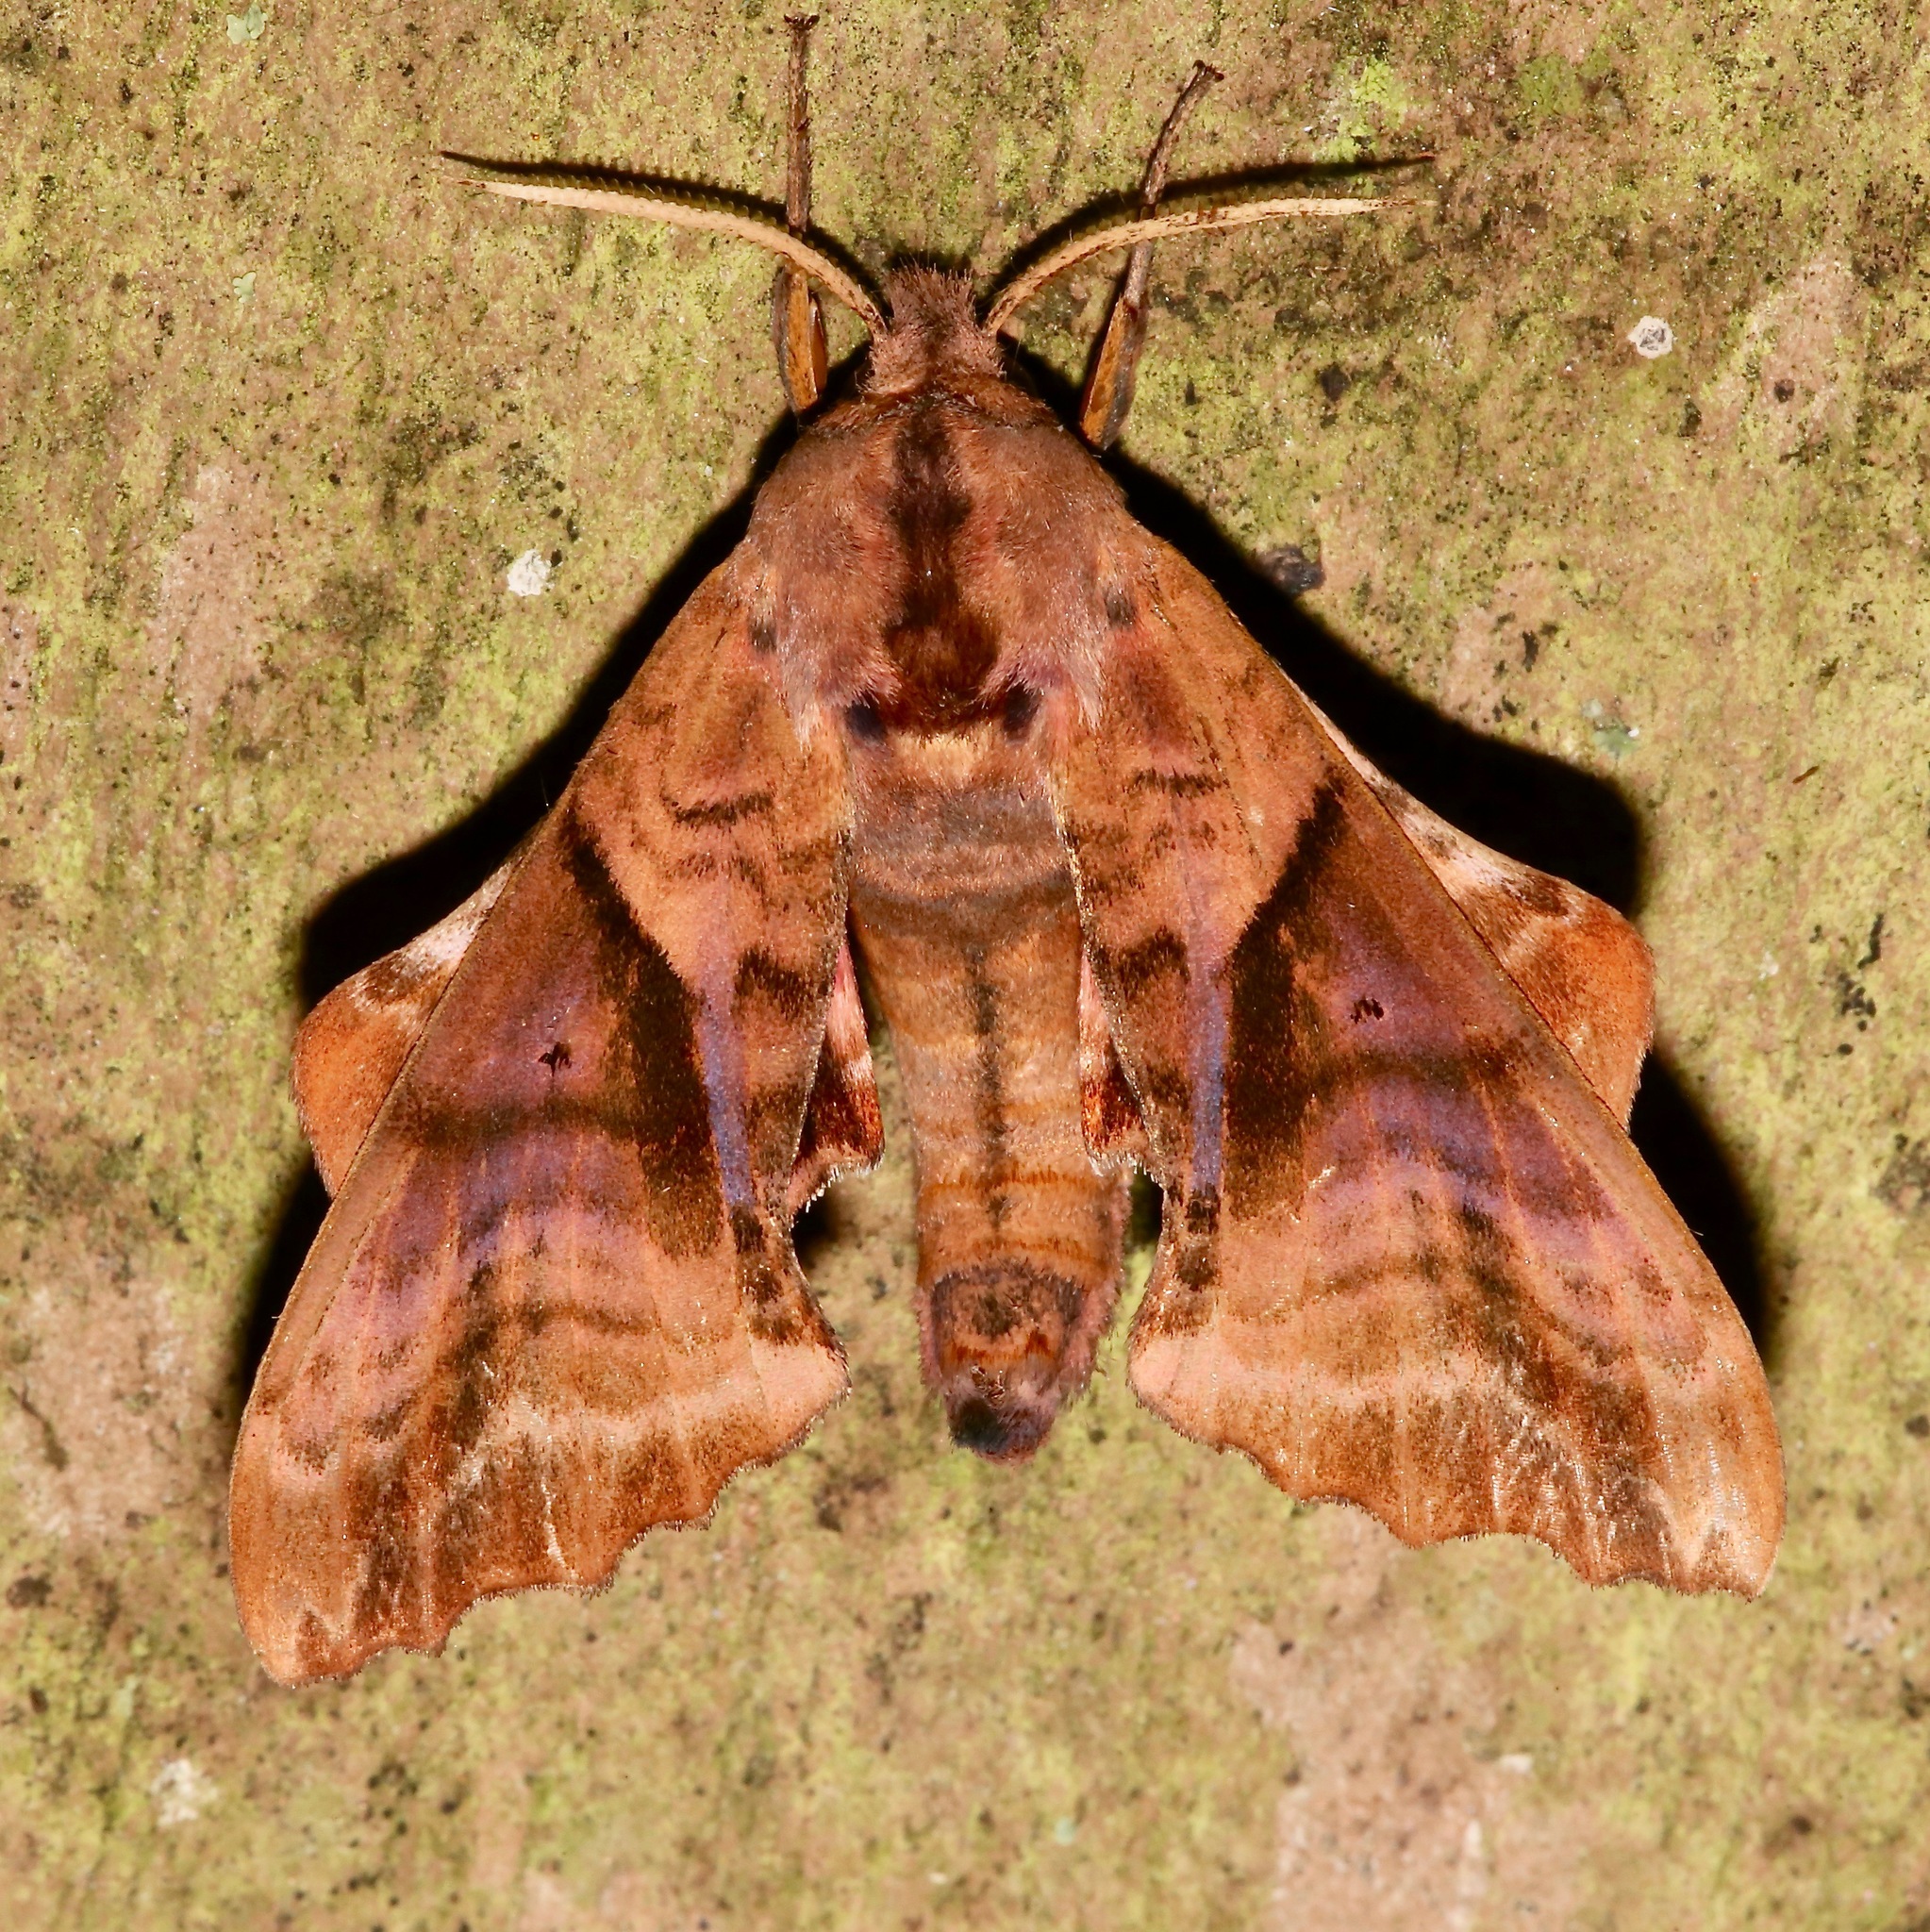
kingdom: Animalia
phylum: Arthropoda
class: Insecta
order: Lepidoptera
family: Sphingidae
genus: Paonias
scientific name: Paonias excaecata
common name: Blind-eyed sphinx
